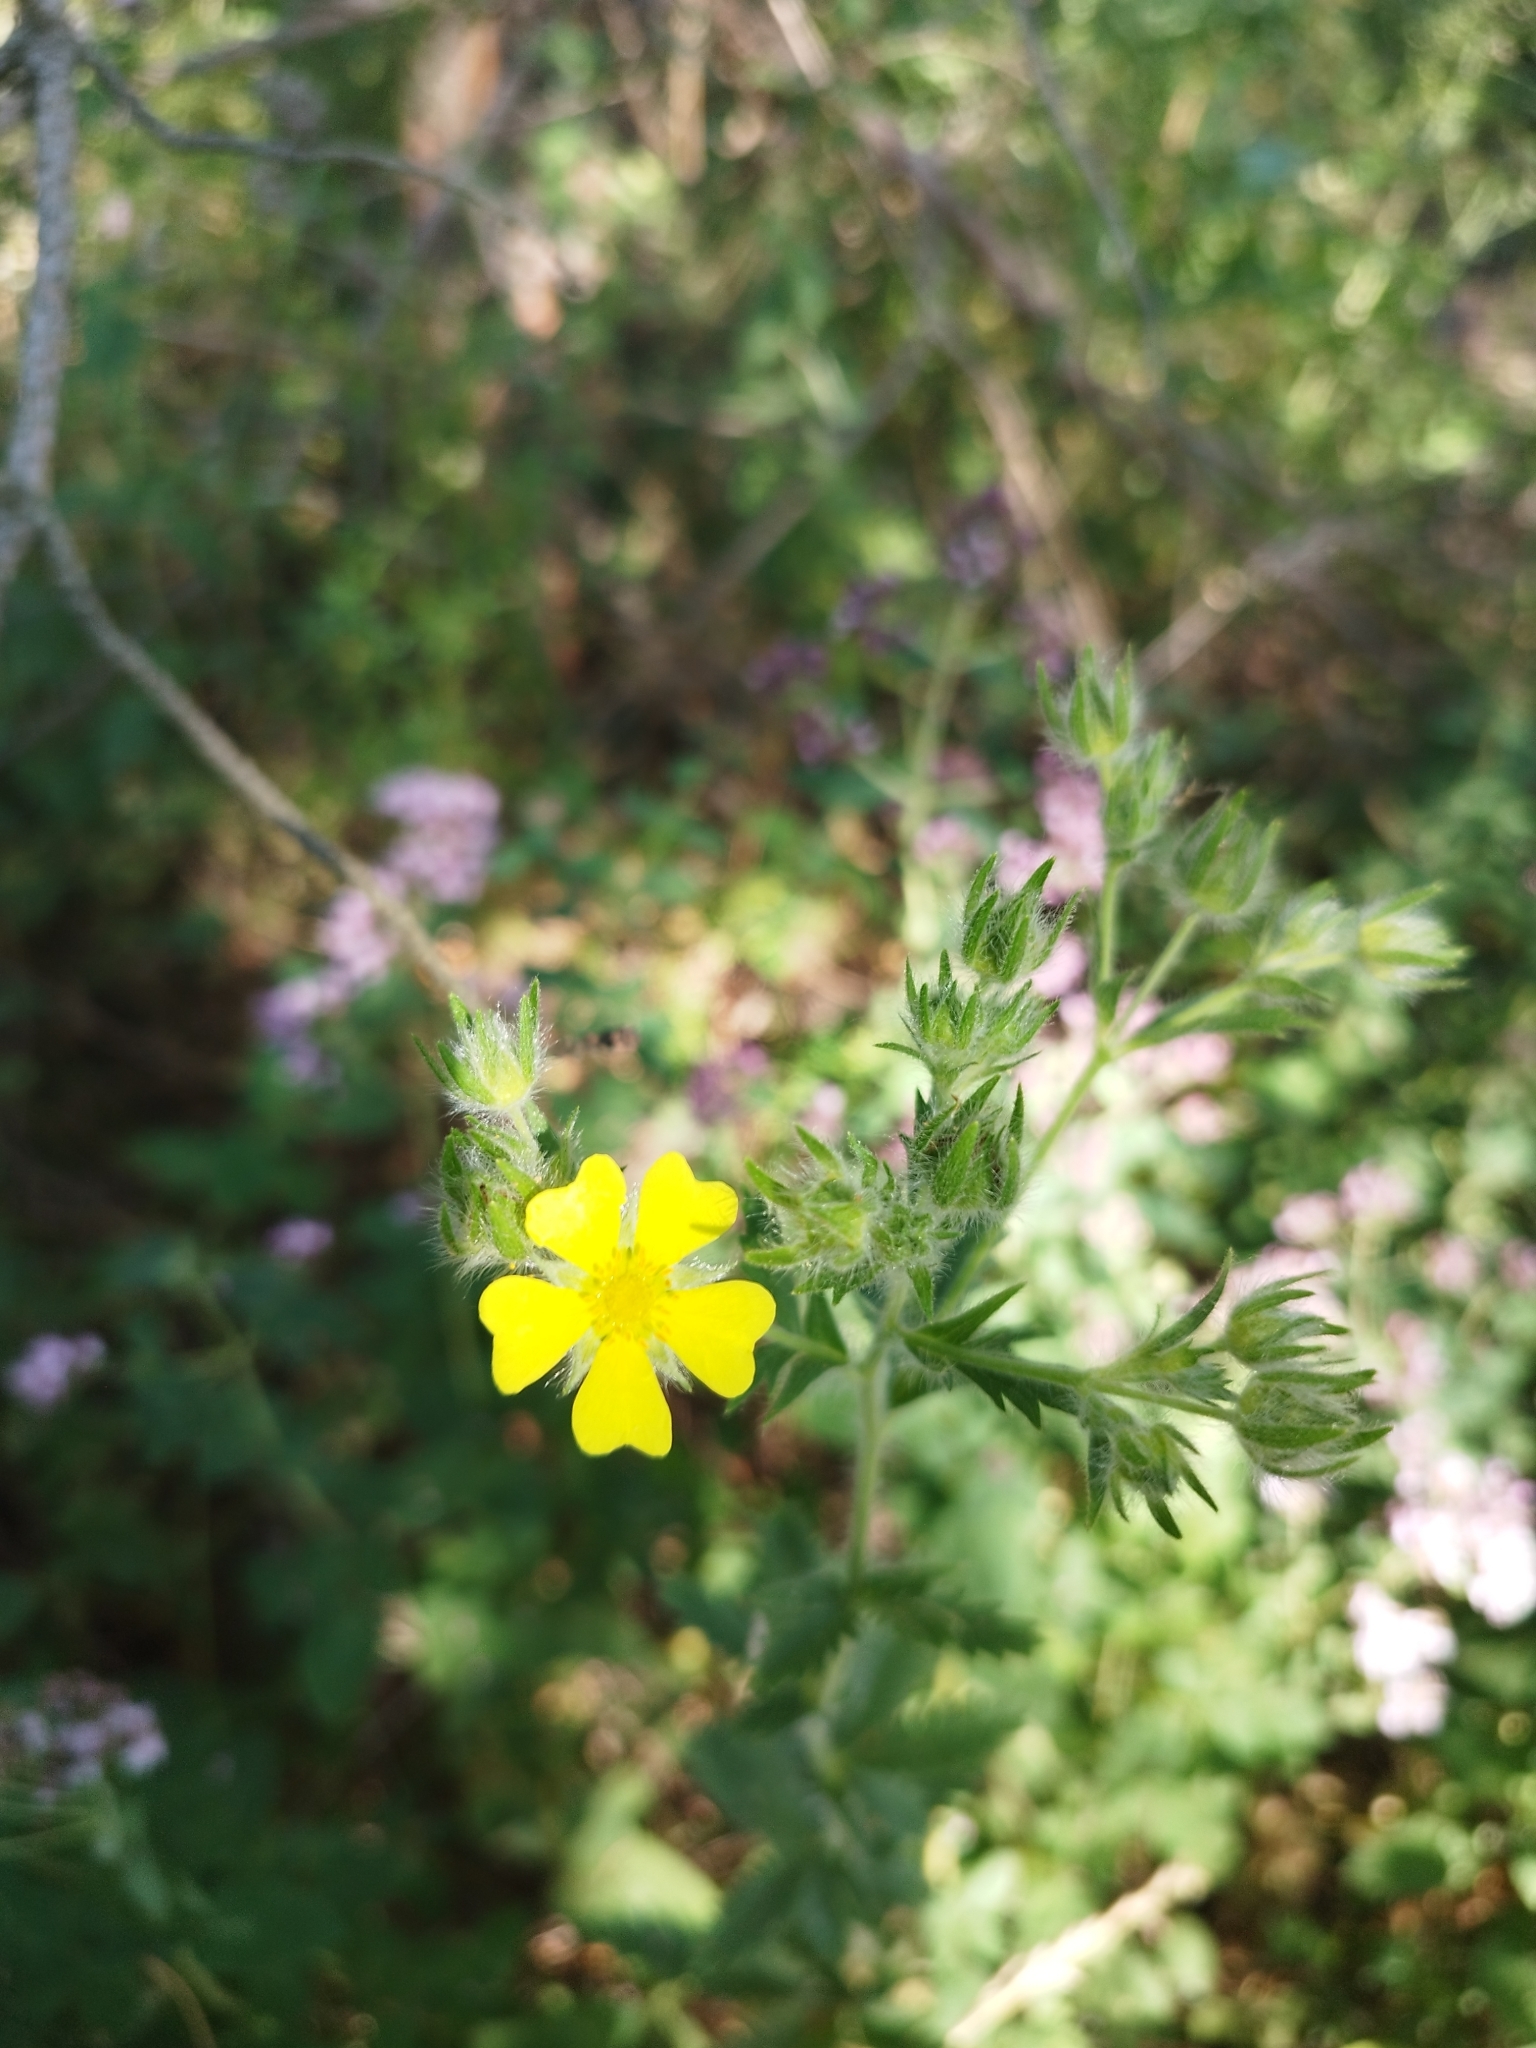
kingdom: Plantae
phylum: Tracheophyta
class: Magnoliopsida
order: Rosales
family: Rosaceae
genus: Potentilla
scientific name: Potentilla argentea
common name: Hoary cinquefoil
